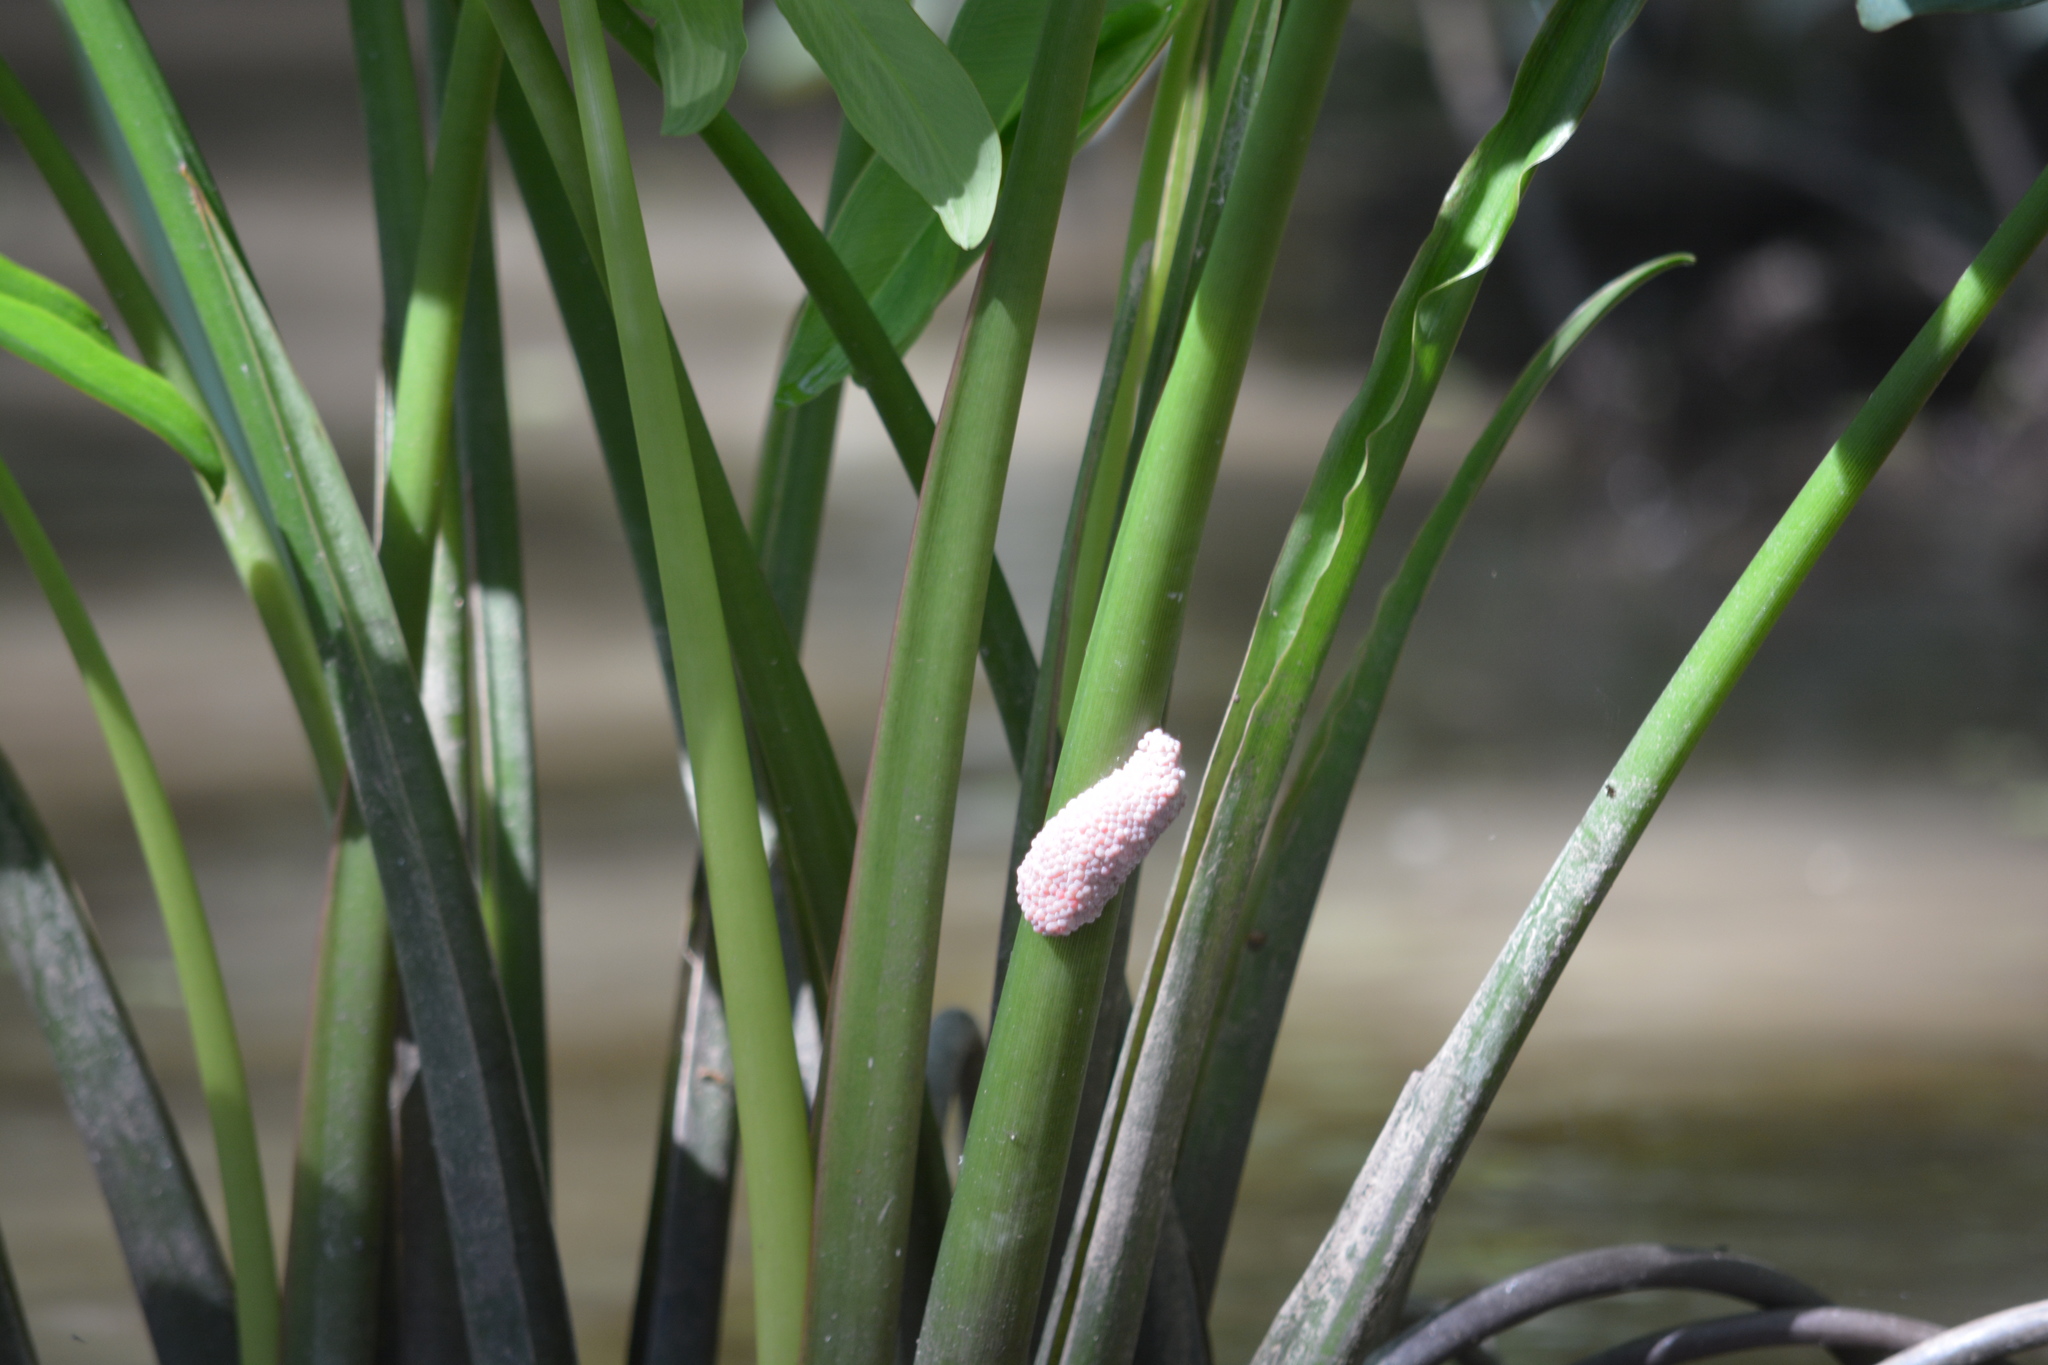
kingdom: Animalia
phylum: Mollusca
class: Gastropoda
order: Architaenioglossa
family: Ampullariidae
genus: Pomacea
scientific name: Pomacea maculata
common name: Giant applesnail
